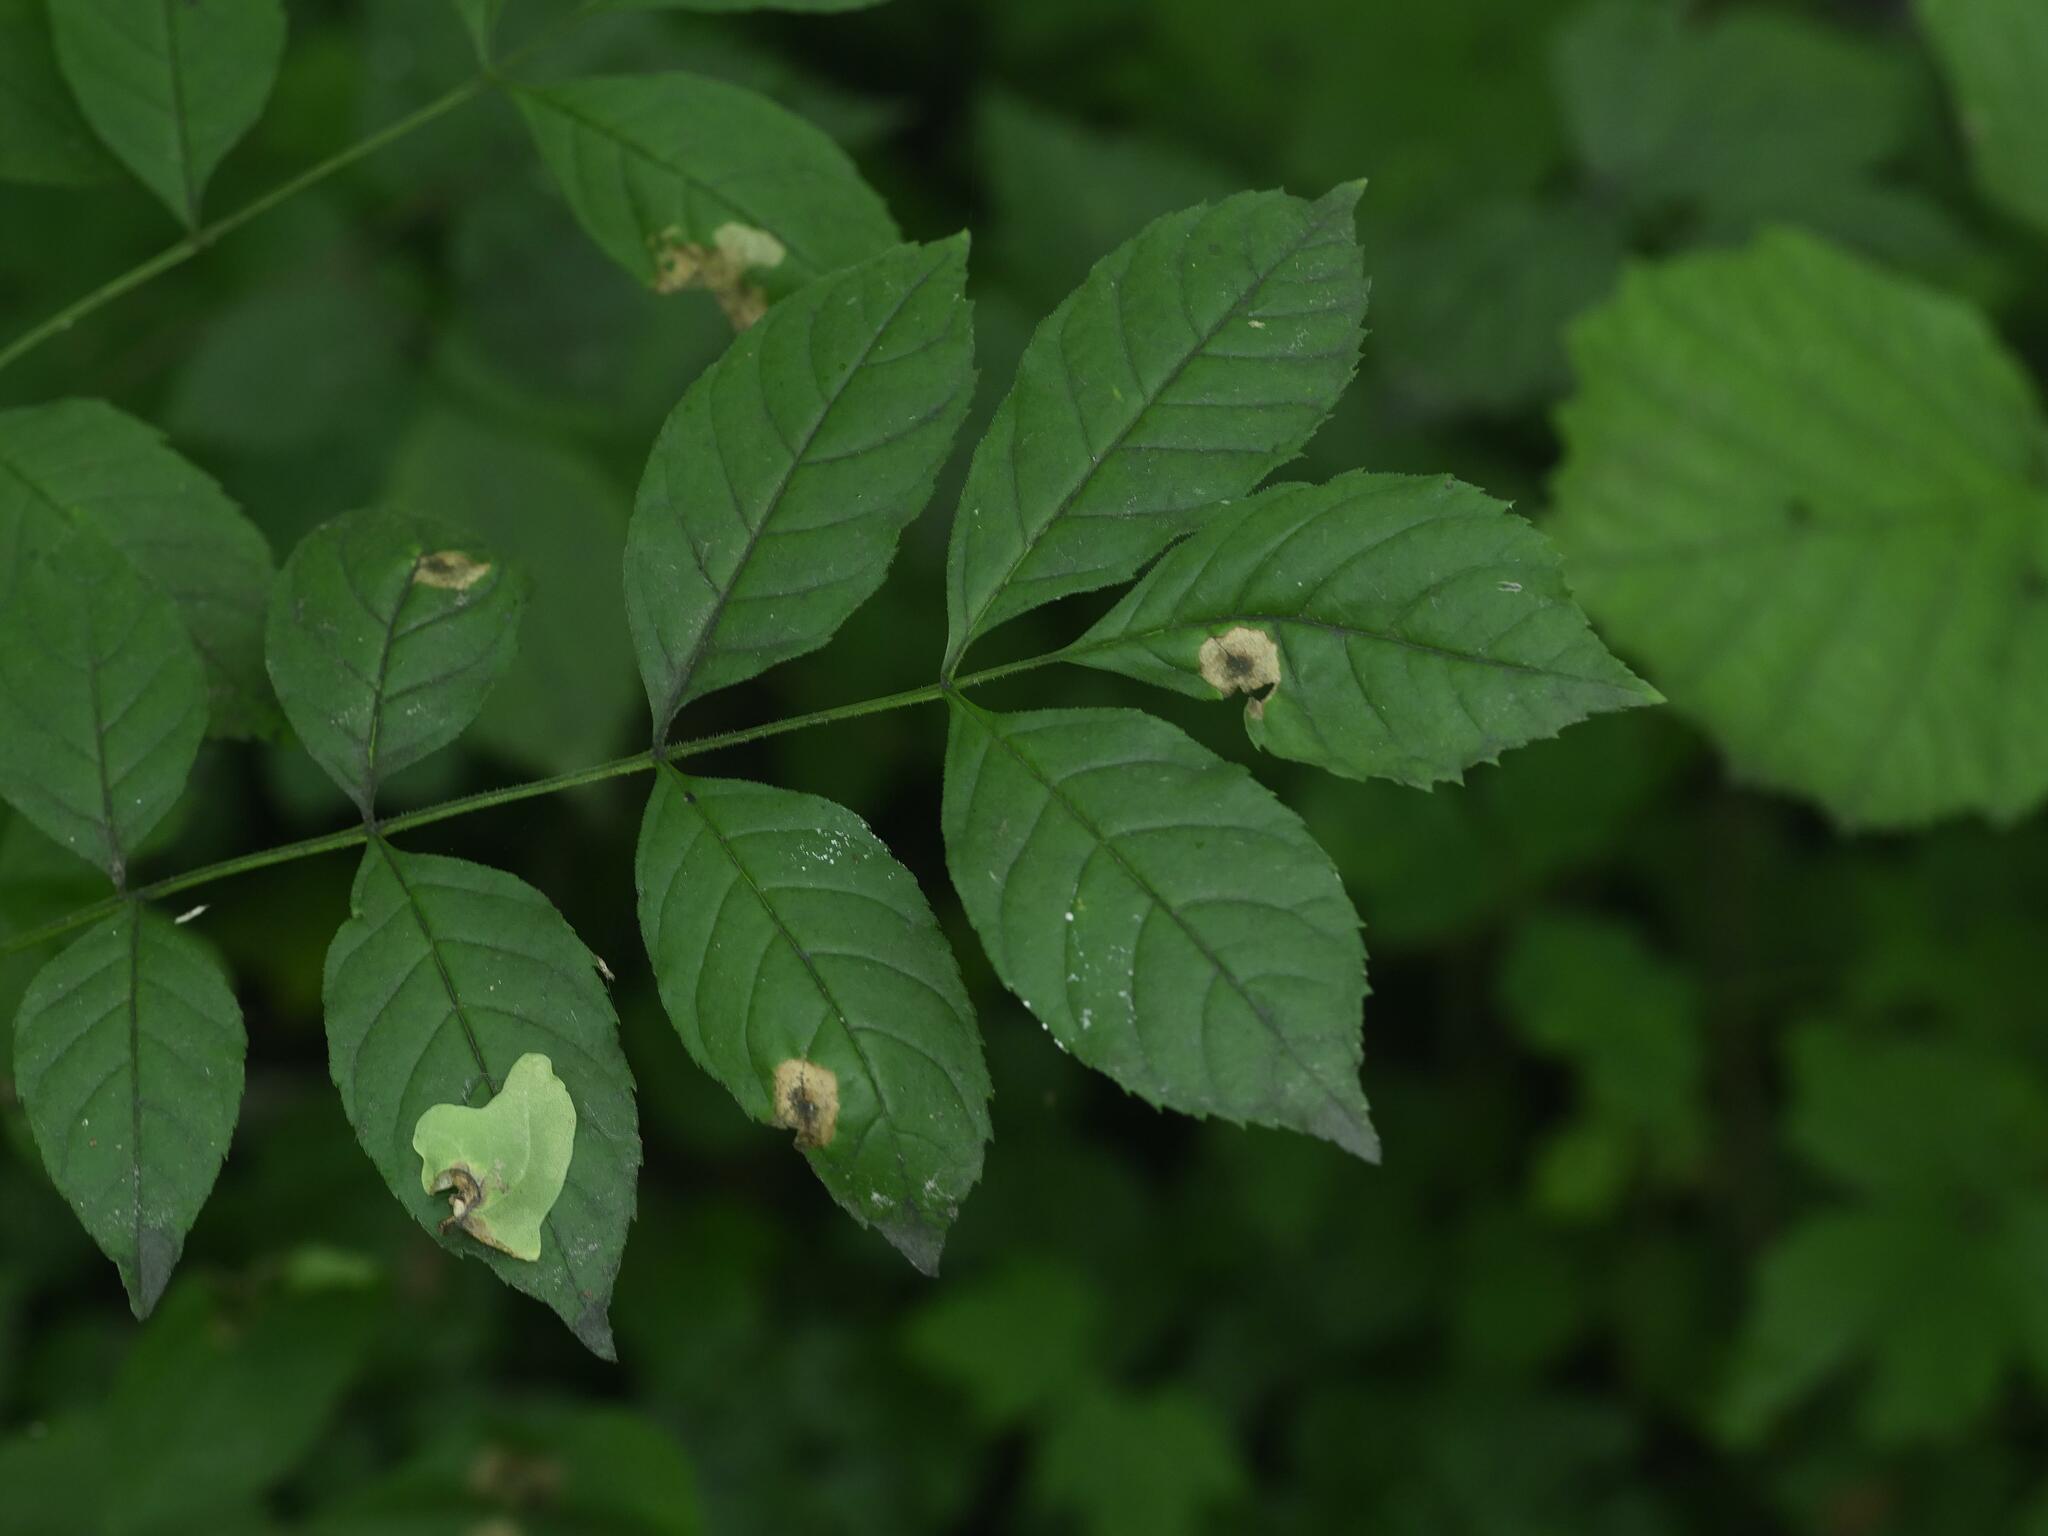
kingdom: Plantae
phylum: Tracheophyta
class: Magnoliopsida
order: Lamiales
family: Oleaceae
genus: Fraxinus
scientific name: Fraxinus excelsior
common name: European ash
